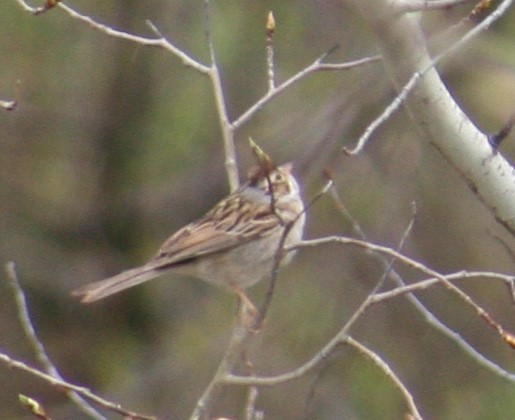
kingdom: Animalia
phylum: Chordata
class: Aves
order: Passeriformes
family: Passerellidae
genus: Spizella
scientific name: Spizella pallida
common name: Clay-colored sparrow
